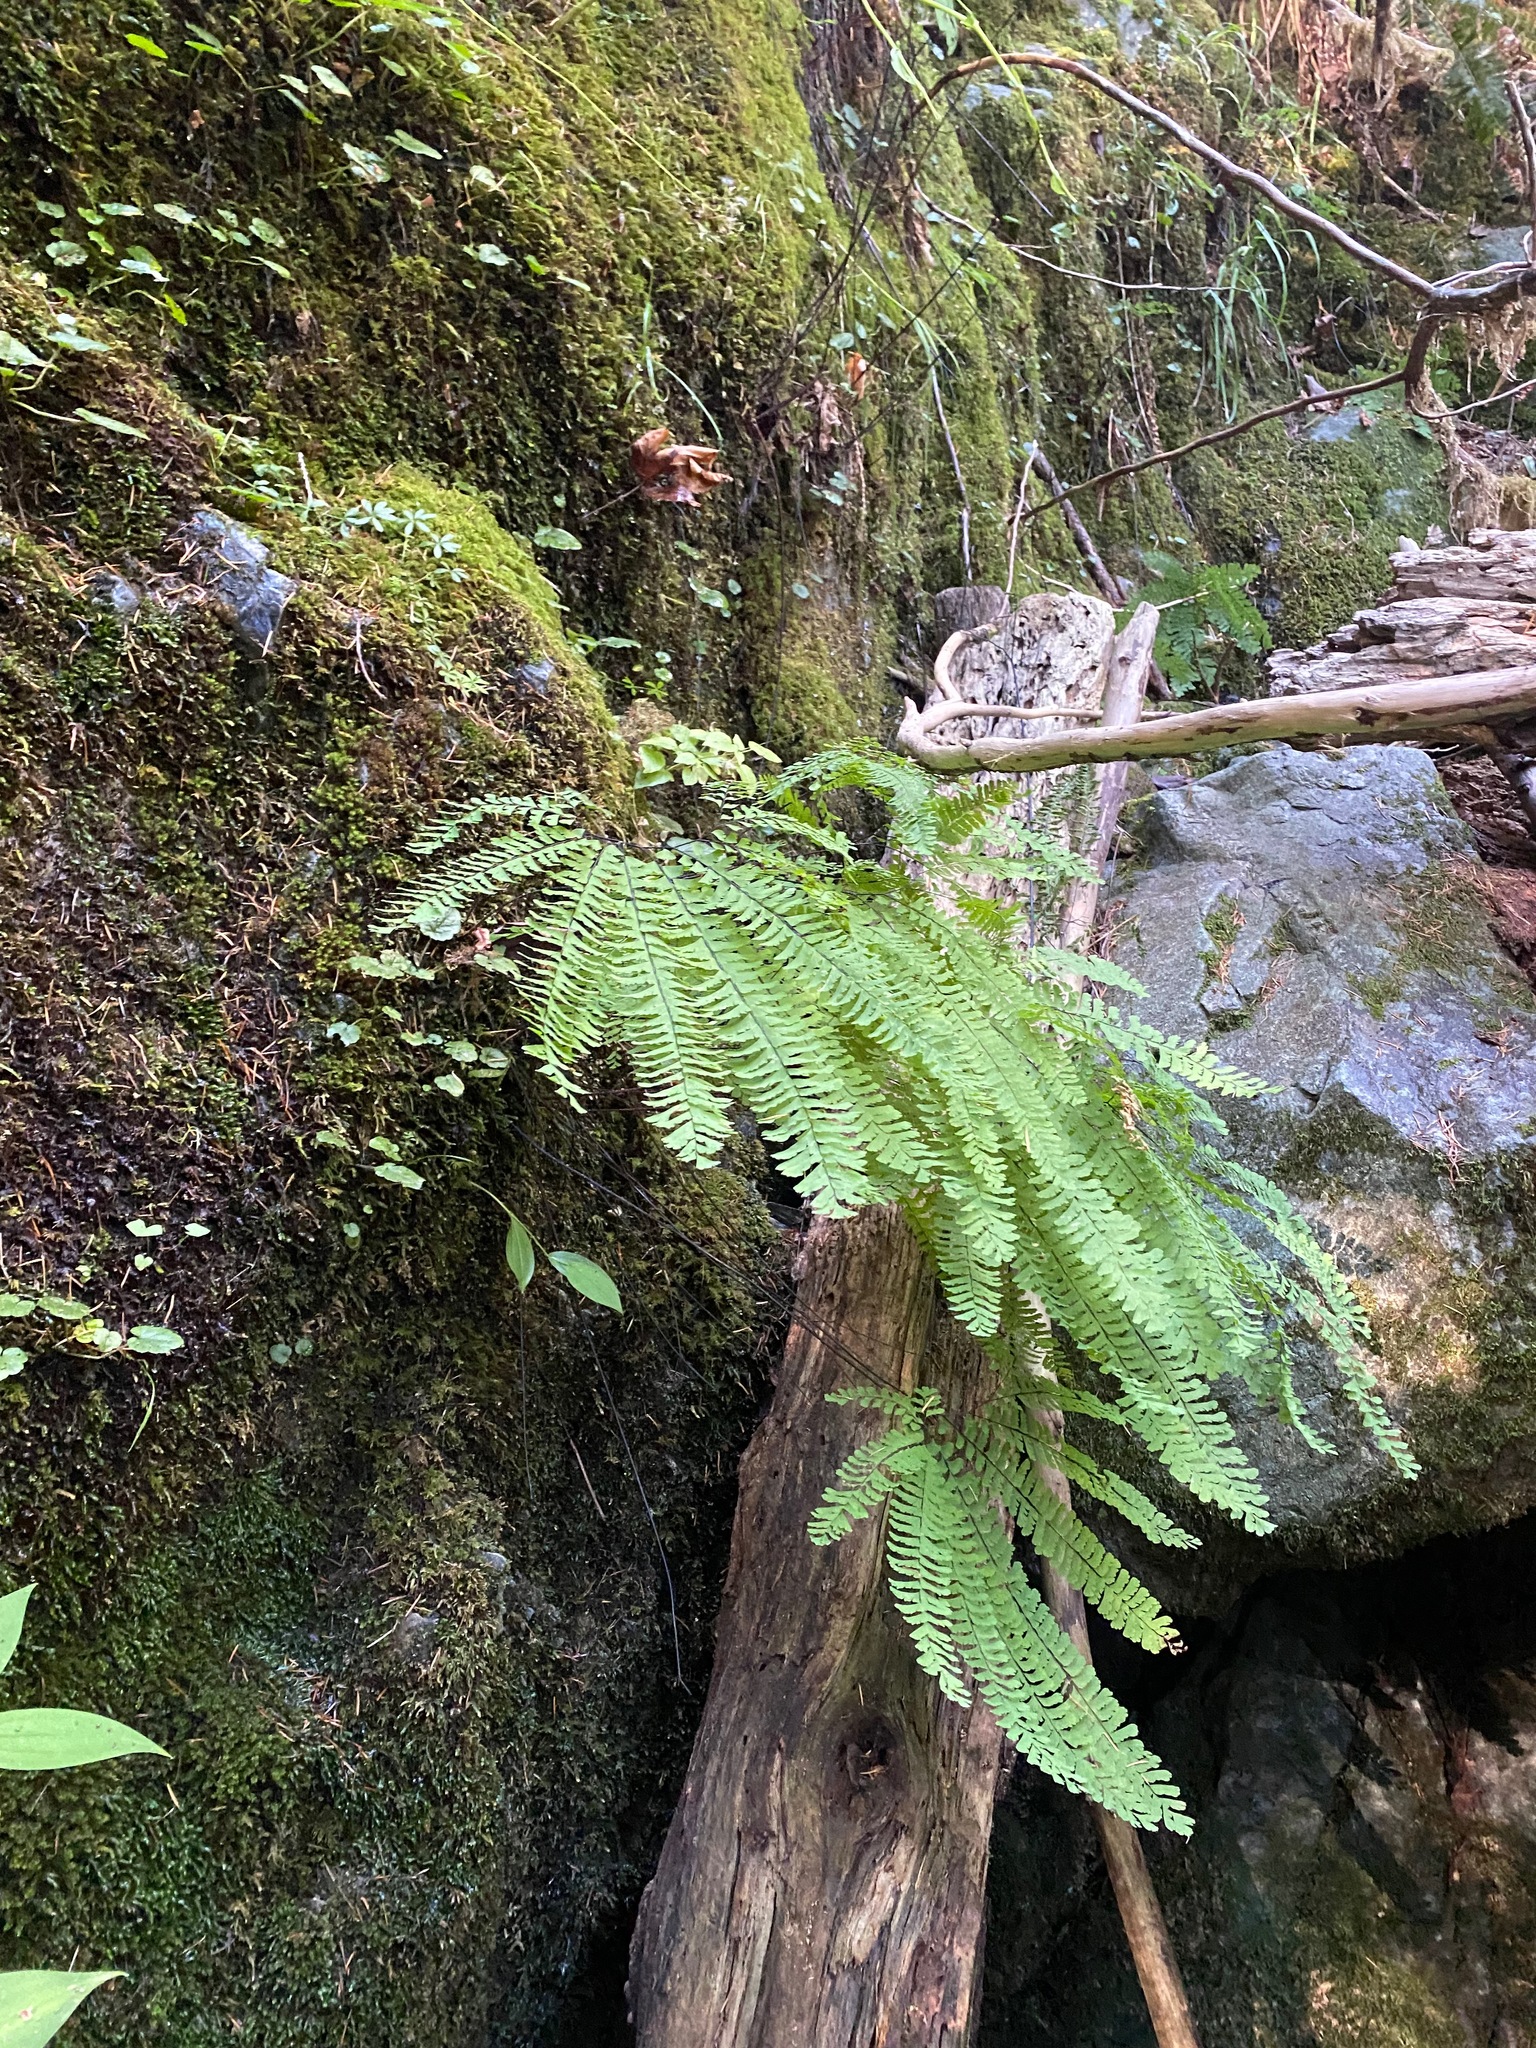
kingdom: Plantae
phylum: Tracheophyta
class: Polypodiopsida
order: Polypodiales
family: Pteridaceae
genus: Adiantum
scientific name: Adiantum aleuticum
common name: Aleutian maidenhair fern
